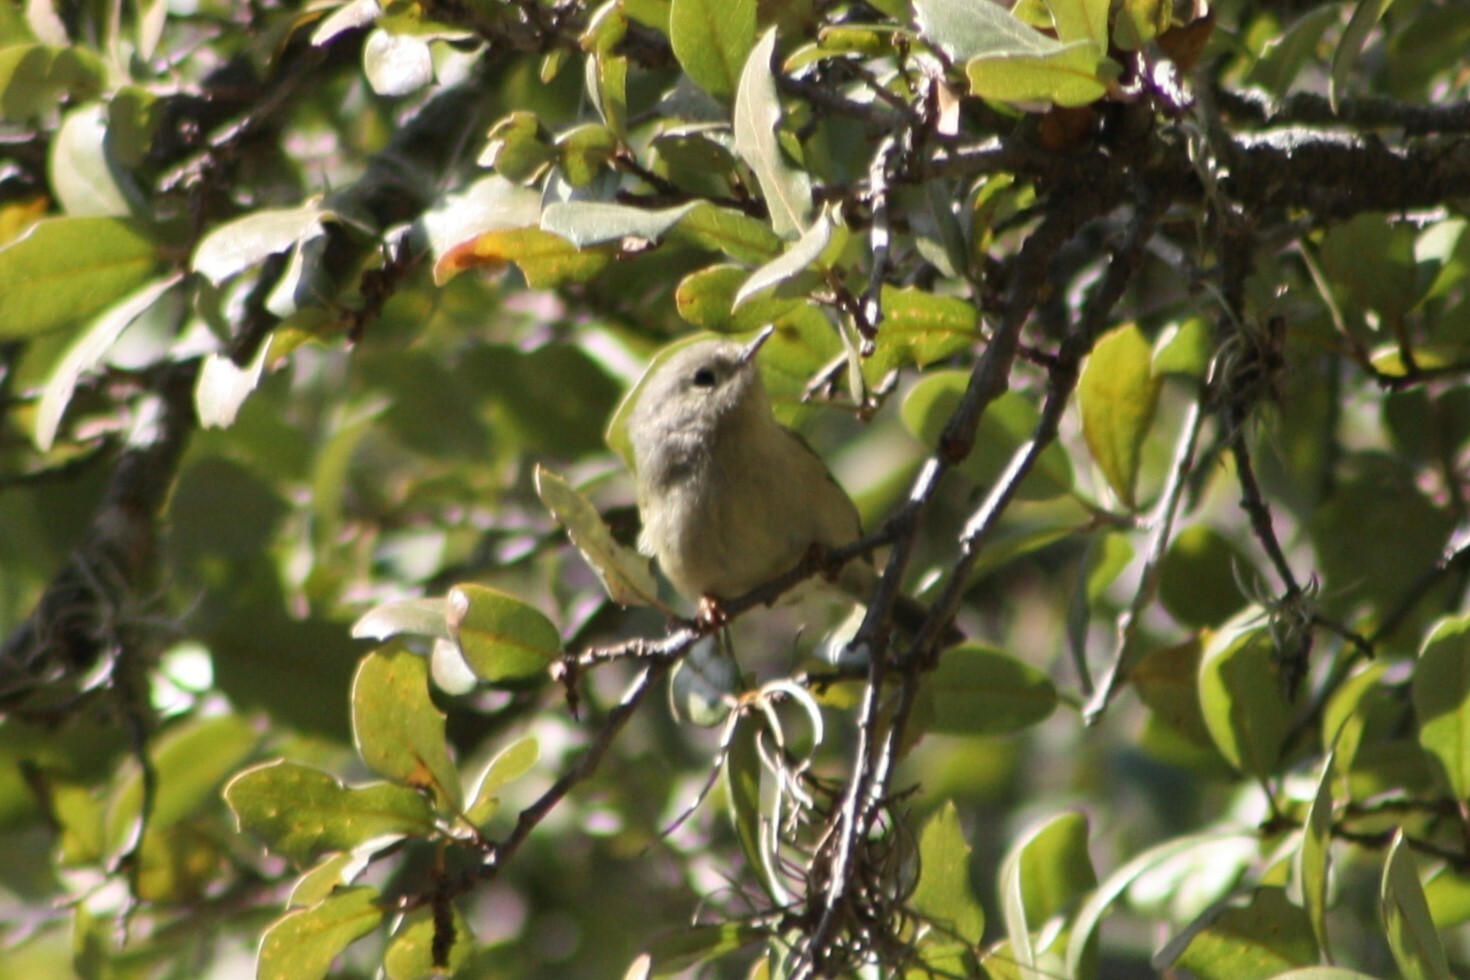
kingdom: Animalia
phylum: Chordata
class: Aves
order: Passeriformes
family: Regulidae
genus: Regulus
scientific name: Regulus calendula
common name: Ruby-crowned kinglet
